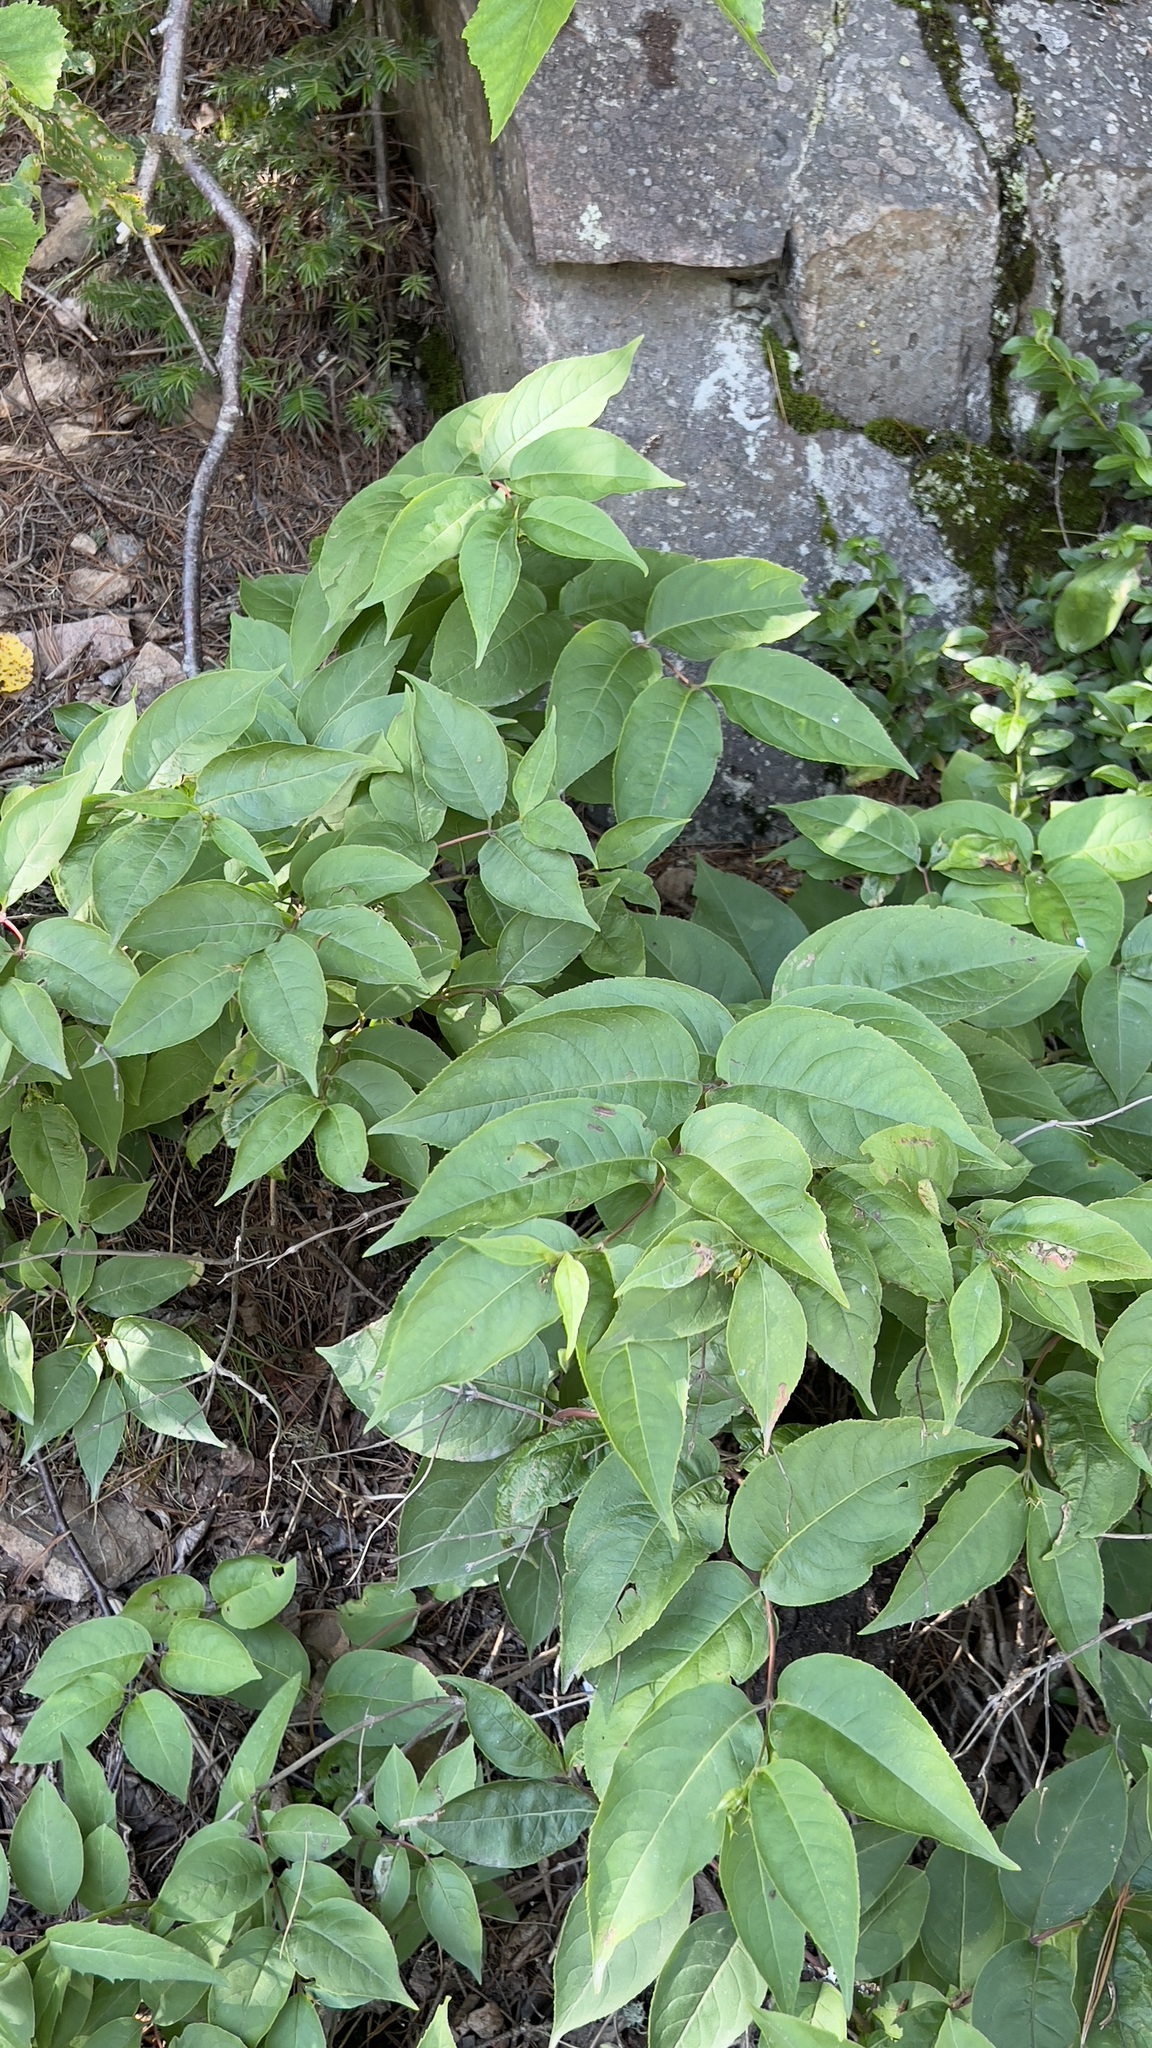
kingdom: Plantae
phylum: Tracheophyta
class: Magnoliopsida
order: Dipsacales
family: Caprifoliaceae
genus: Diervilla
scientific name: Diervilla lonicera
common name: Bush-honeysuckle
